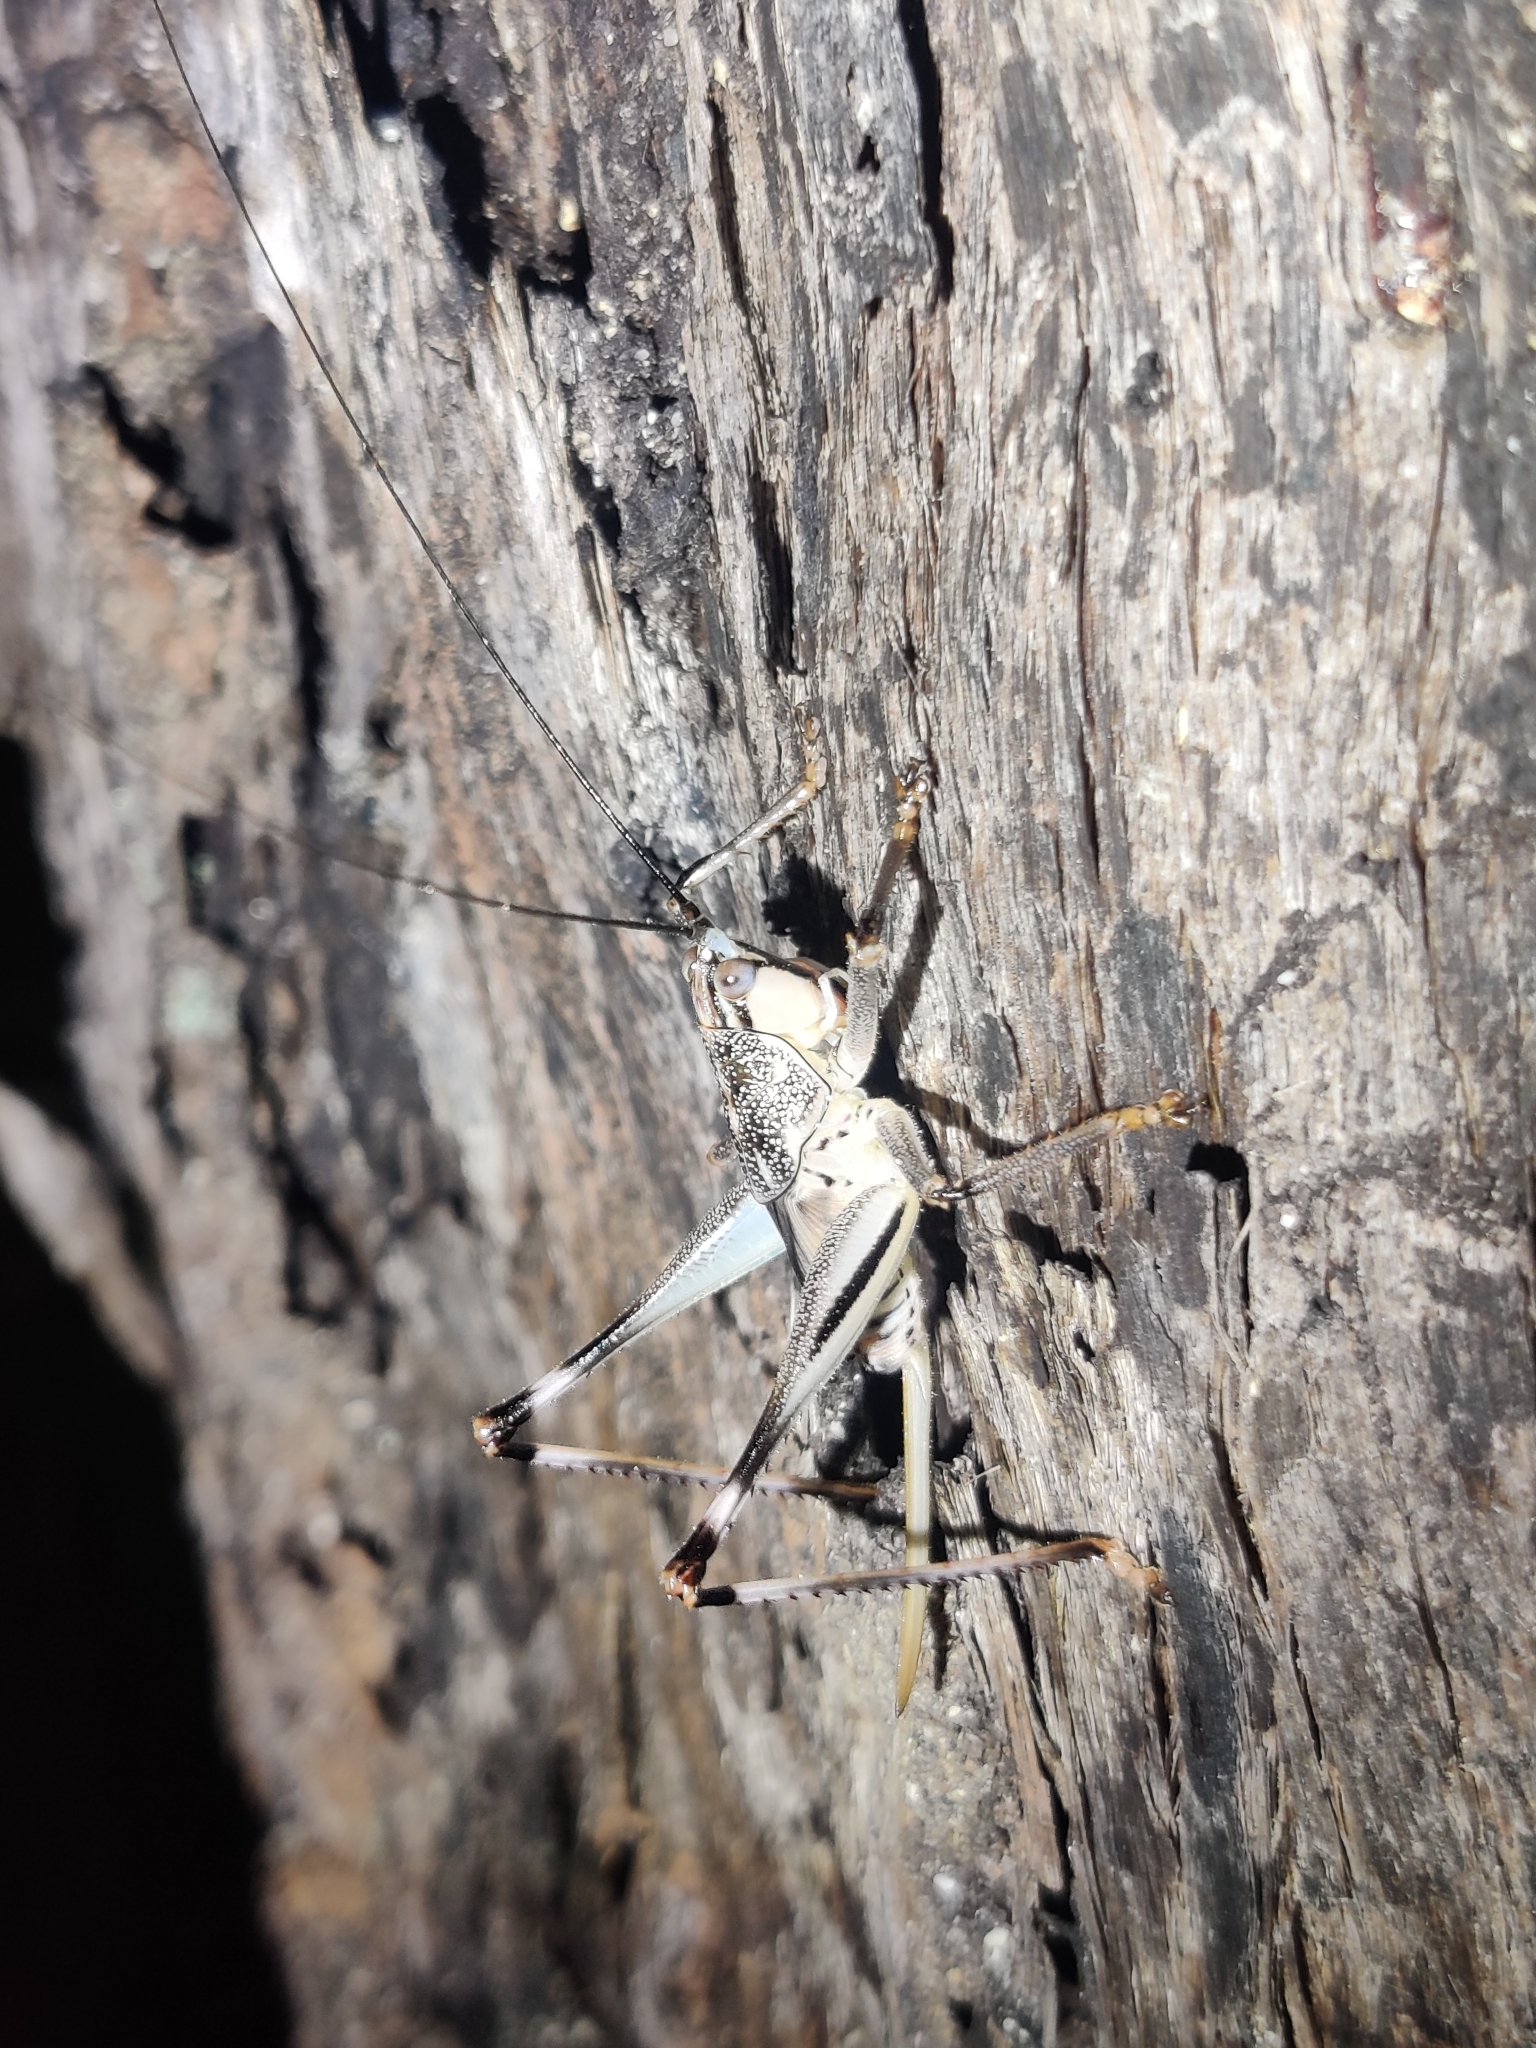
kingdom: Animalia
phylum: Arthropoda
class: Insecta
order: Orthoptera
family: Tettigoniidae
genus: Nicsara
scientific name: Nicsara bifasciata
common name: Striped nicsara
